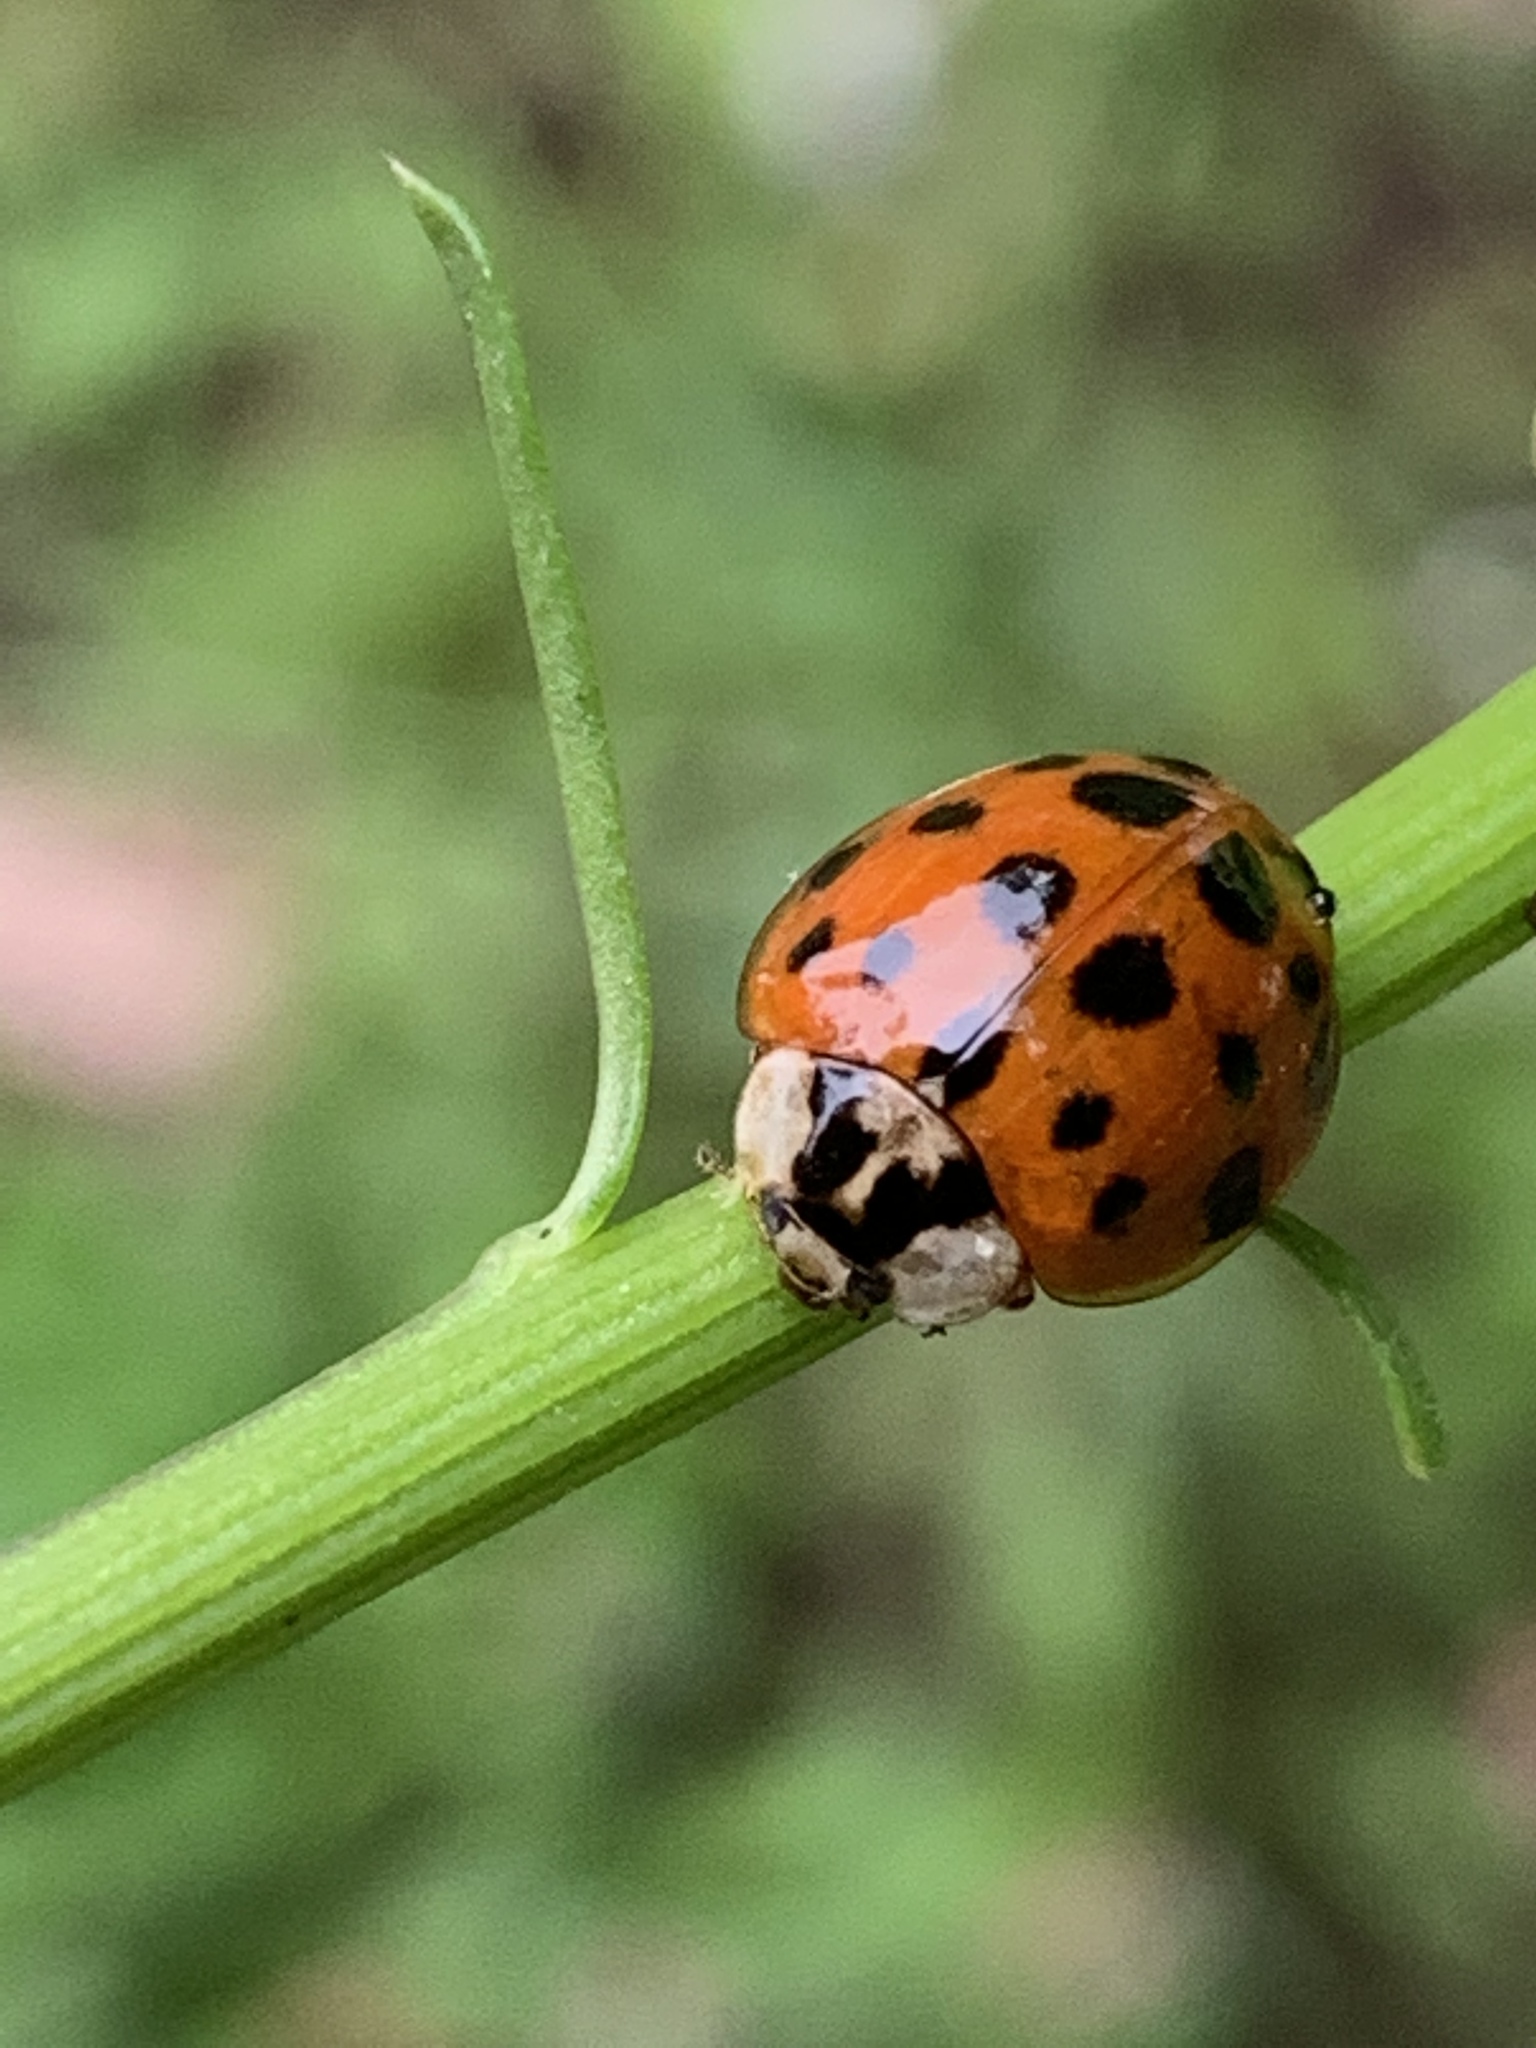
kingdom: Animalia
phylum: Arthropoda
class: Insecta
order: Coleoptera
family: Coccinellidae
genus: Harmonia
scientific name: Harmonia axyridis
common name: Harlequin ladybird
